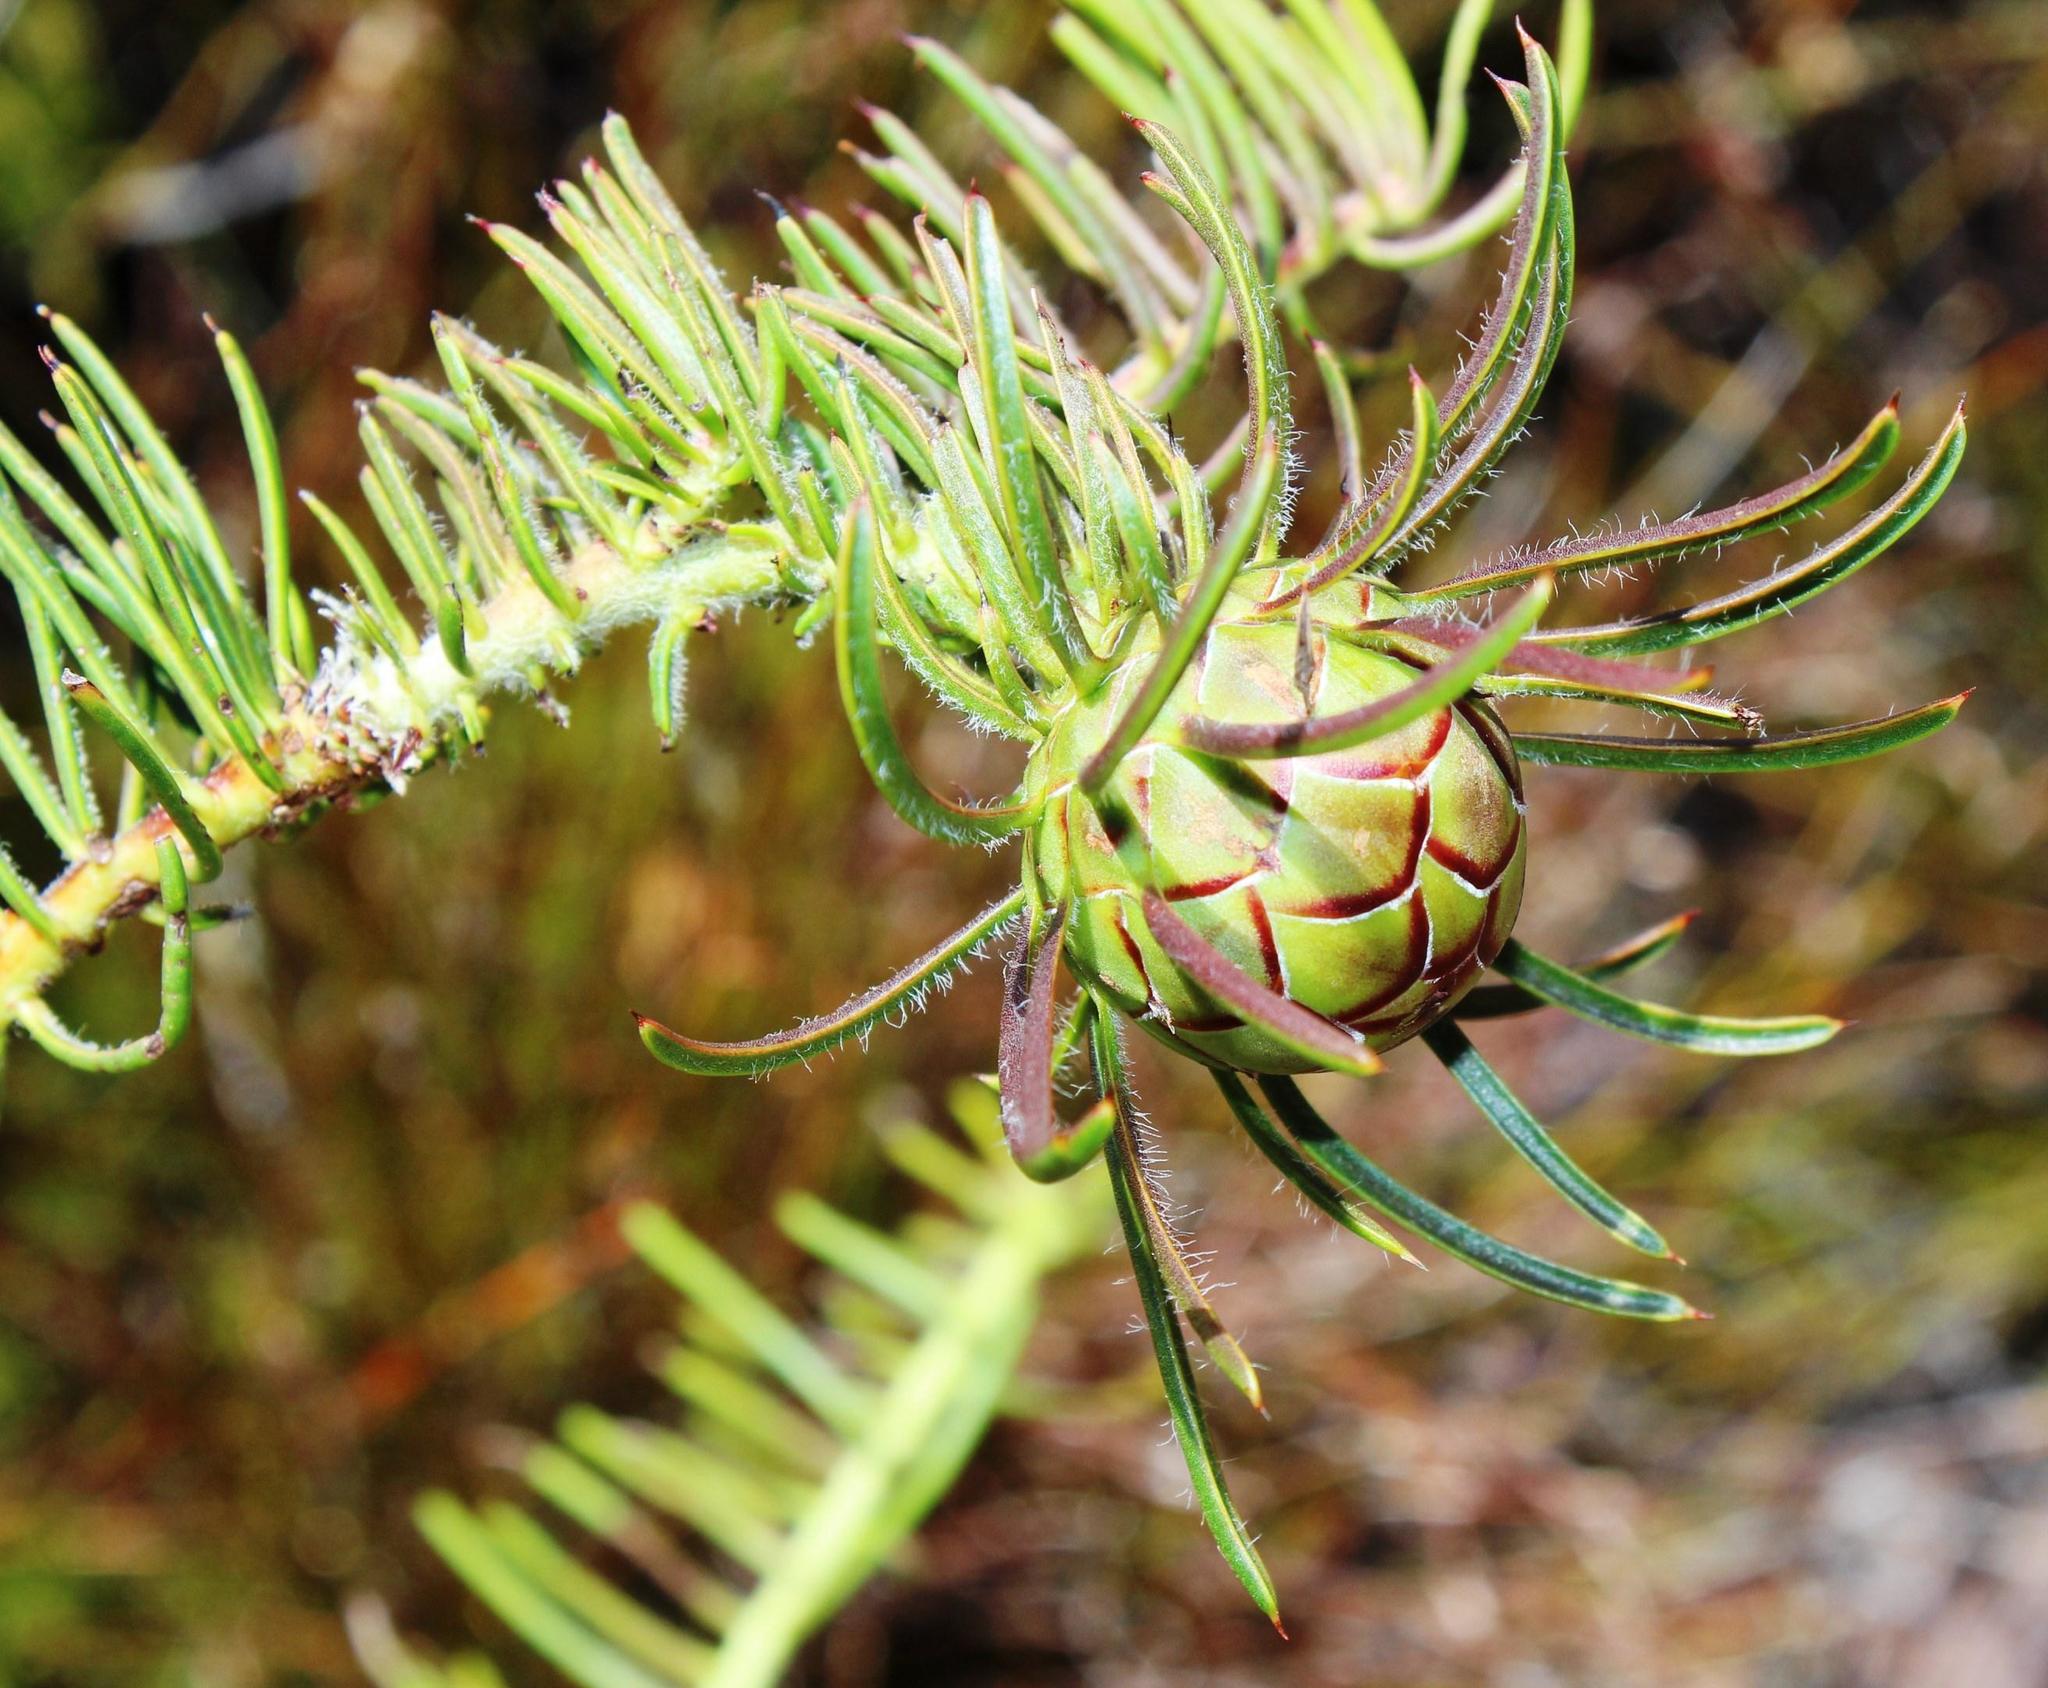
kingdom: Plantae
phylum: Tracheophyta
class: Magnoliopsida
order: Proteales
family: Proteaceae
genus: Protea
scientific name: Protea witzenbergiana
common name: Swan sugarbush
